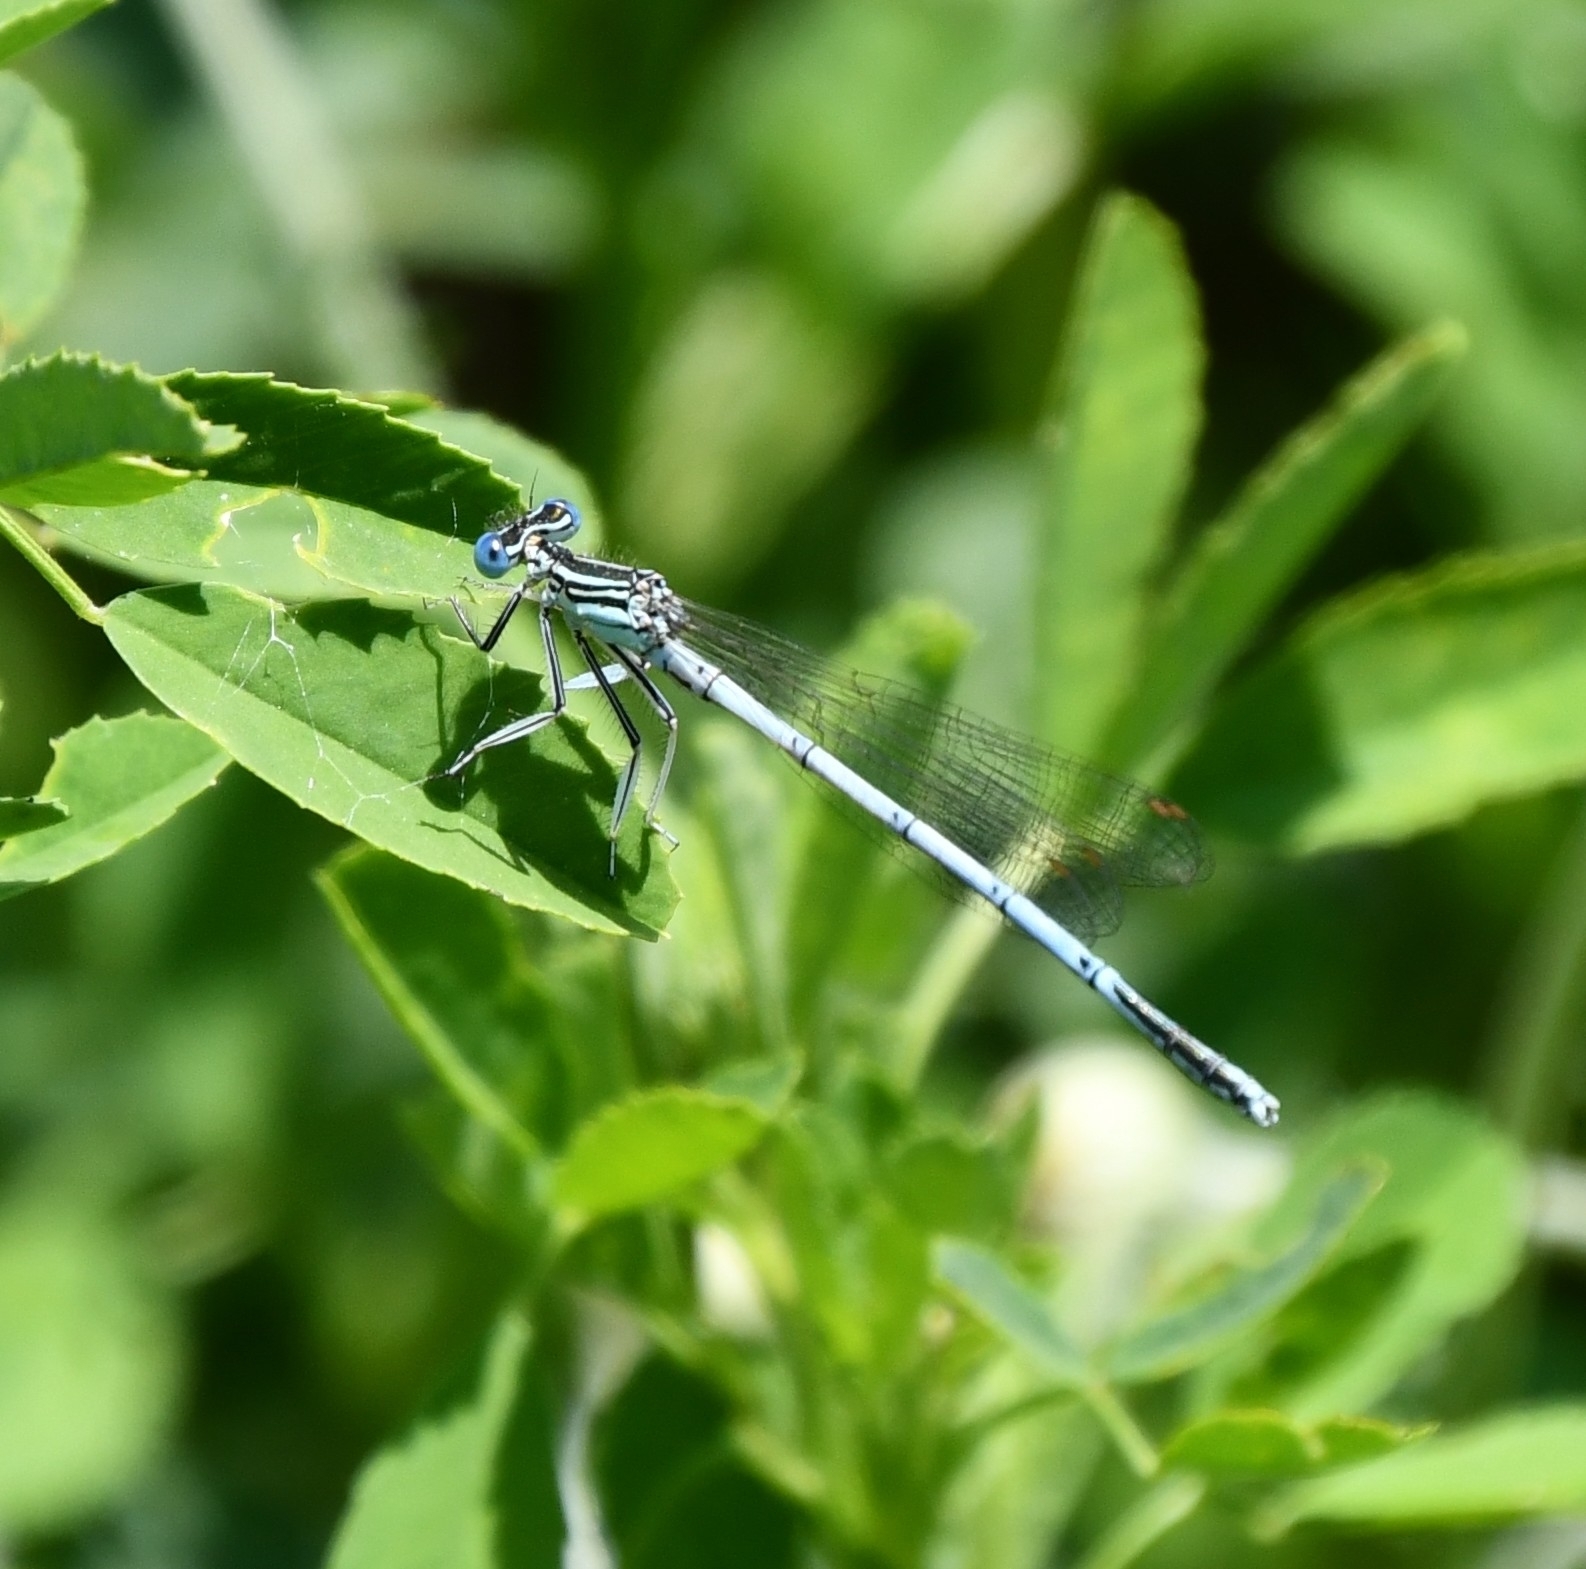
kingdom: Animalia
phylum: Arthropoda
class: Insecta
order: Odonata
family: Platycnemididae
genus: Platycnemis
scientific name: Platycnemis pennipes
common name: White-legged damselfly
